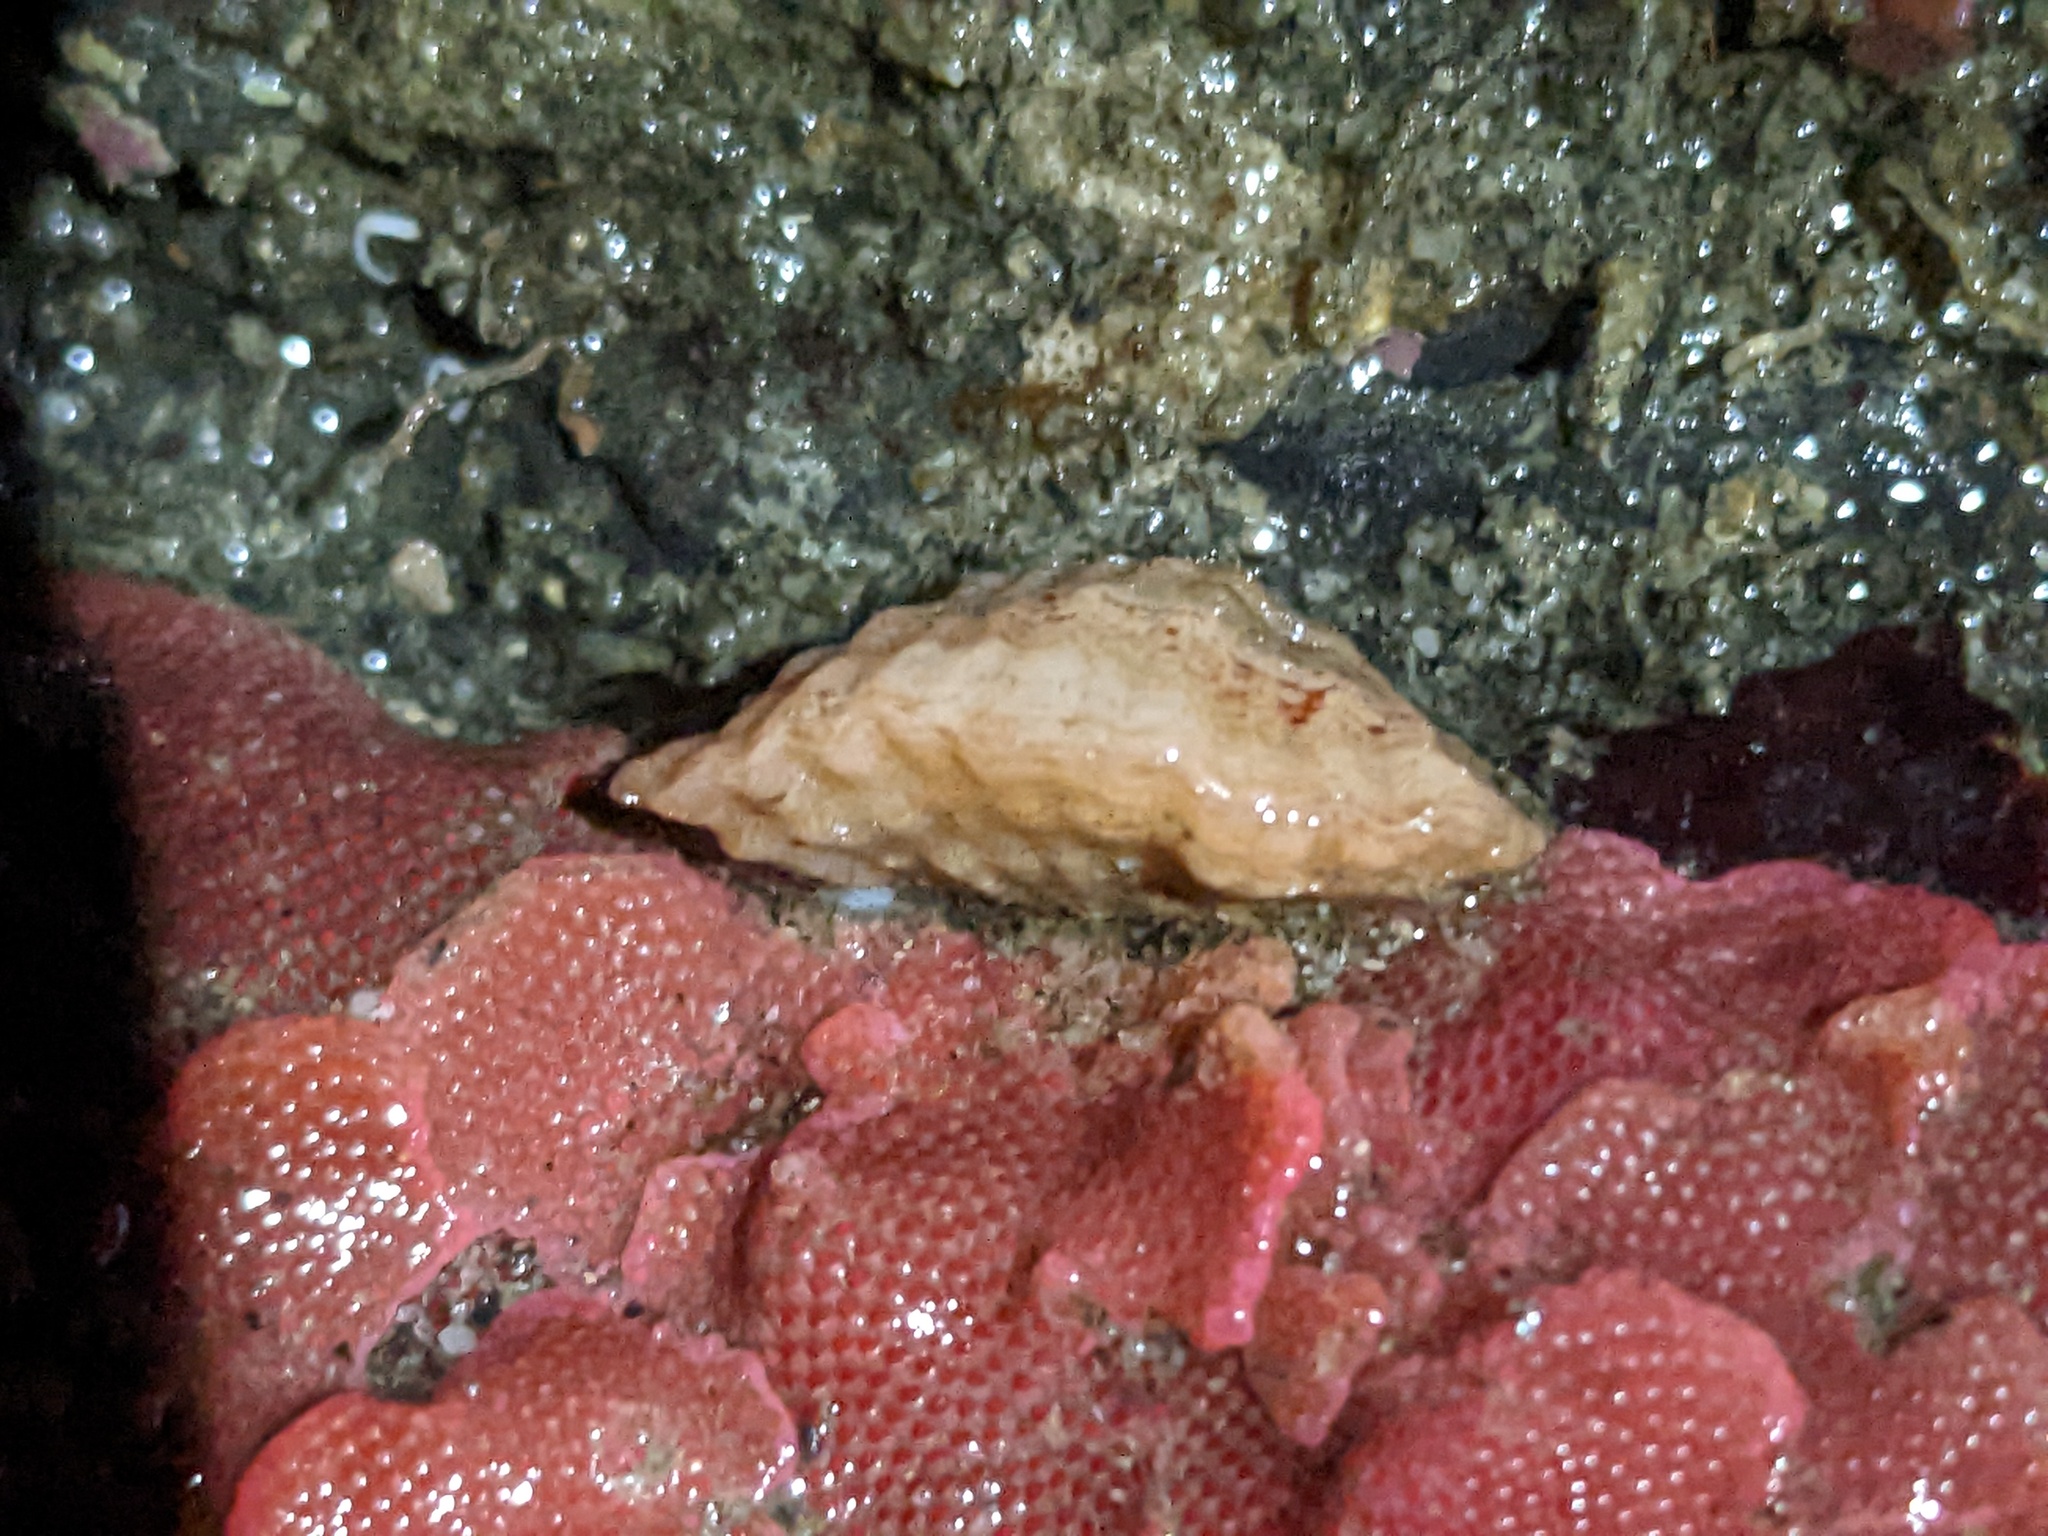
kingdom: Animalia
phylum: Brachiopoda
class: Rhynchonellata
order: Terebratulida
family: Terebrataliidae
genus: Terebratalia
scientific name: Terebratalia transversa
